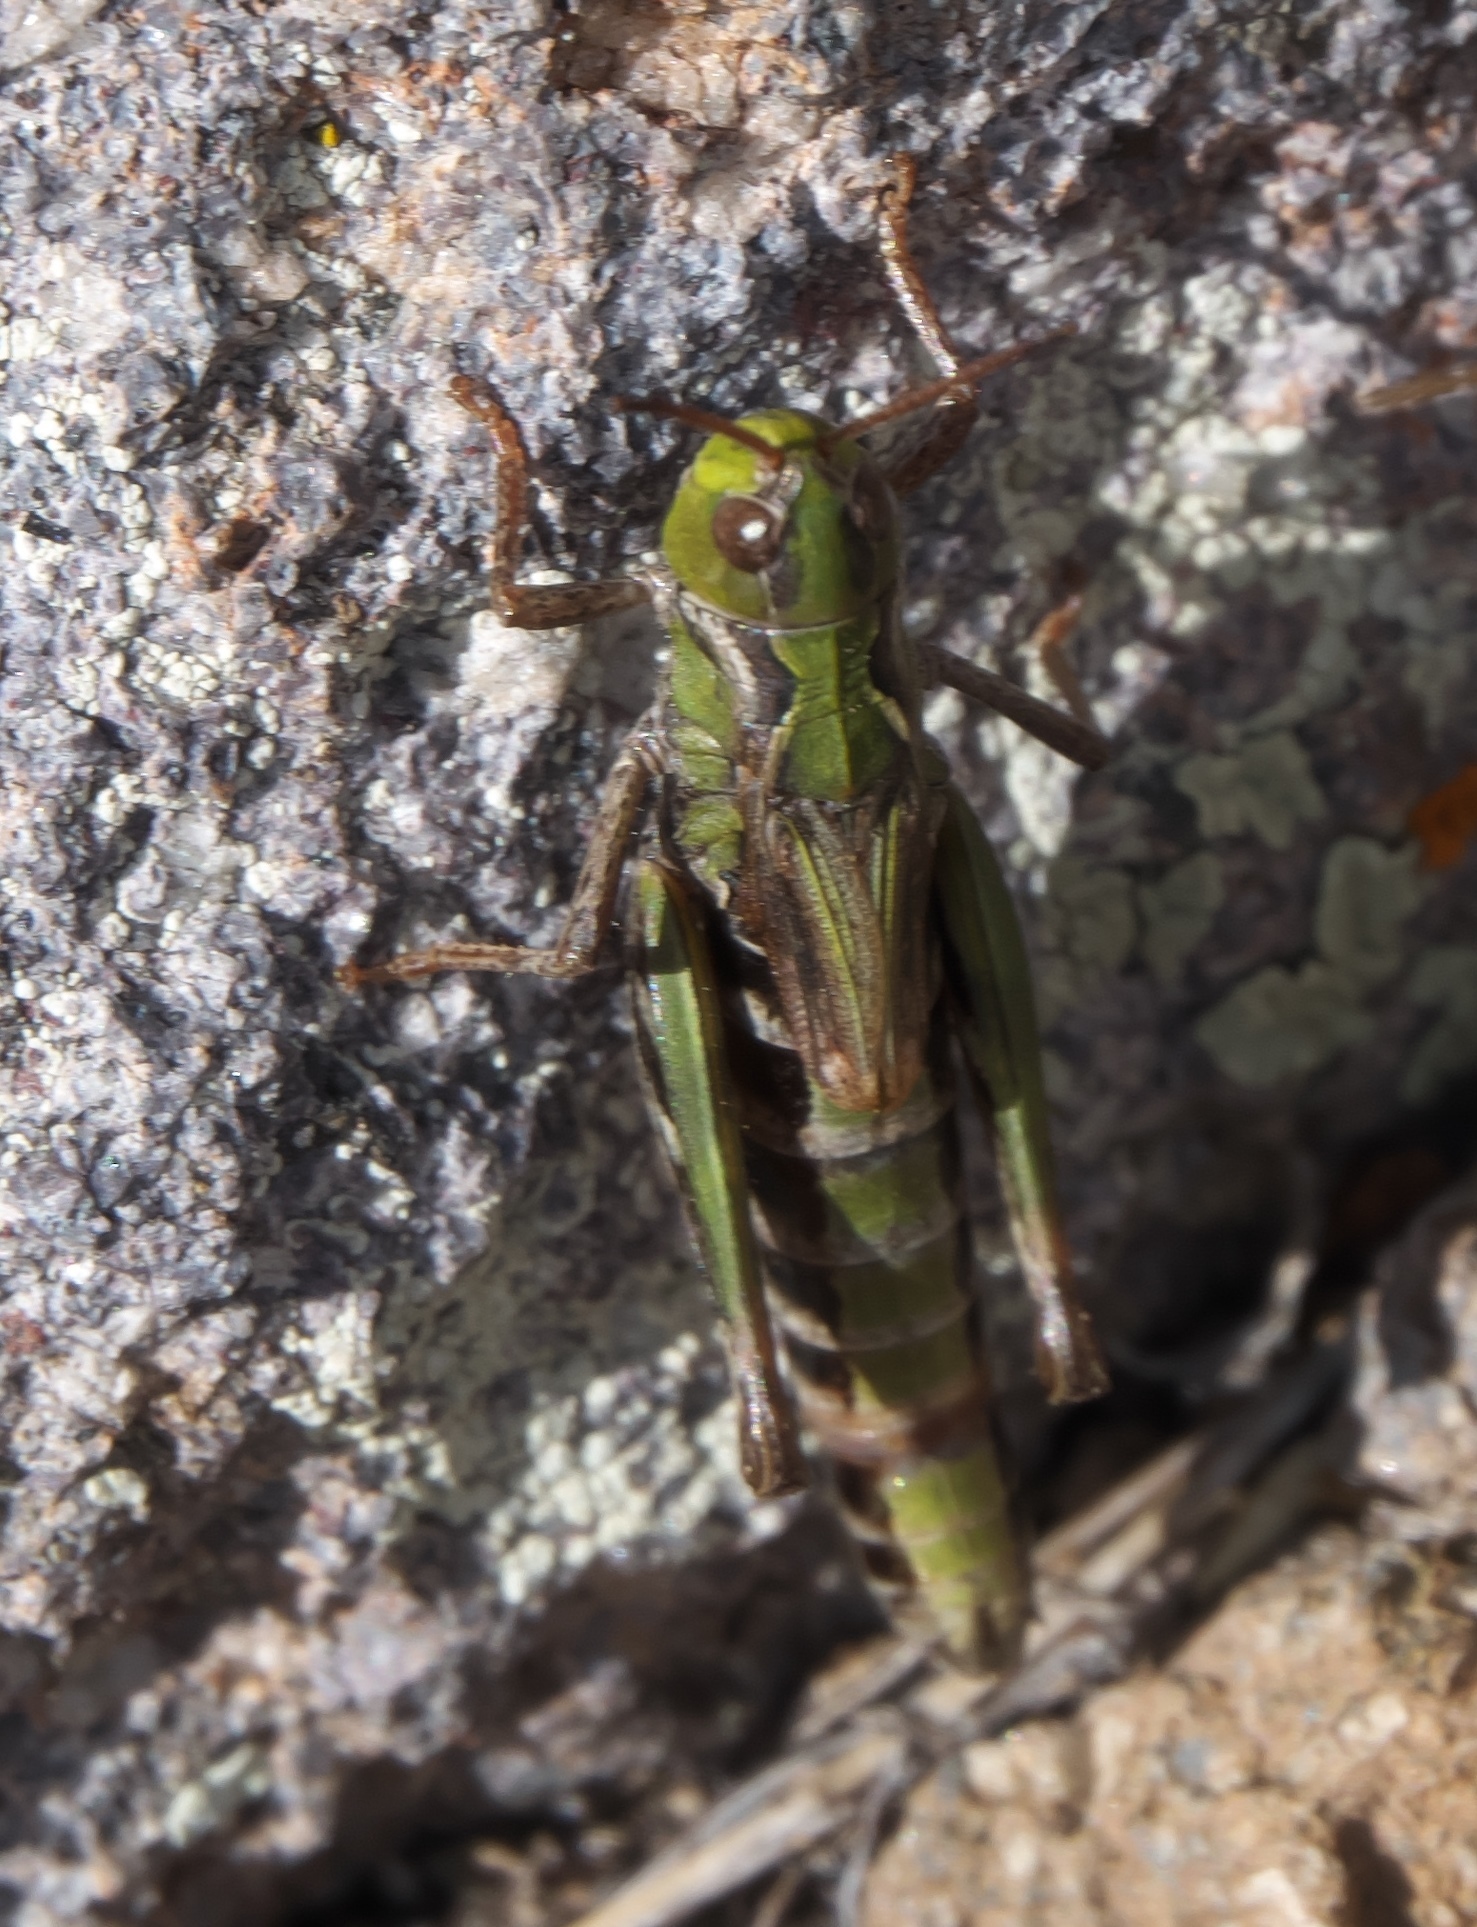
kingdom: Animalia
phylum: Arthropoda
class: Insecta
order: Orthoptera
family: Acrididae
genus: Aeropedellus
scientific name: Aeropedellus clavatus
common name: Clubhorned grasshopper
